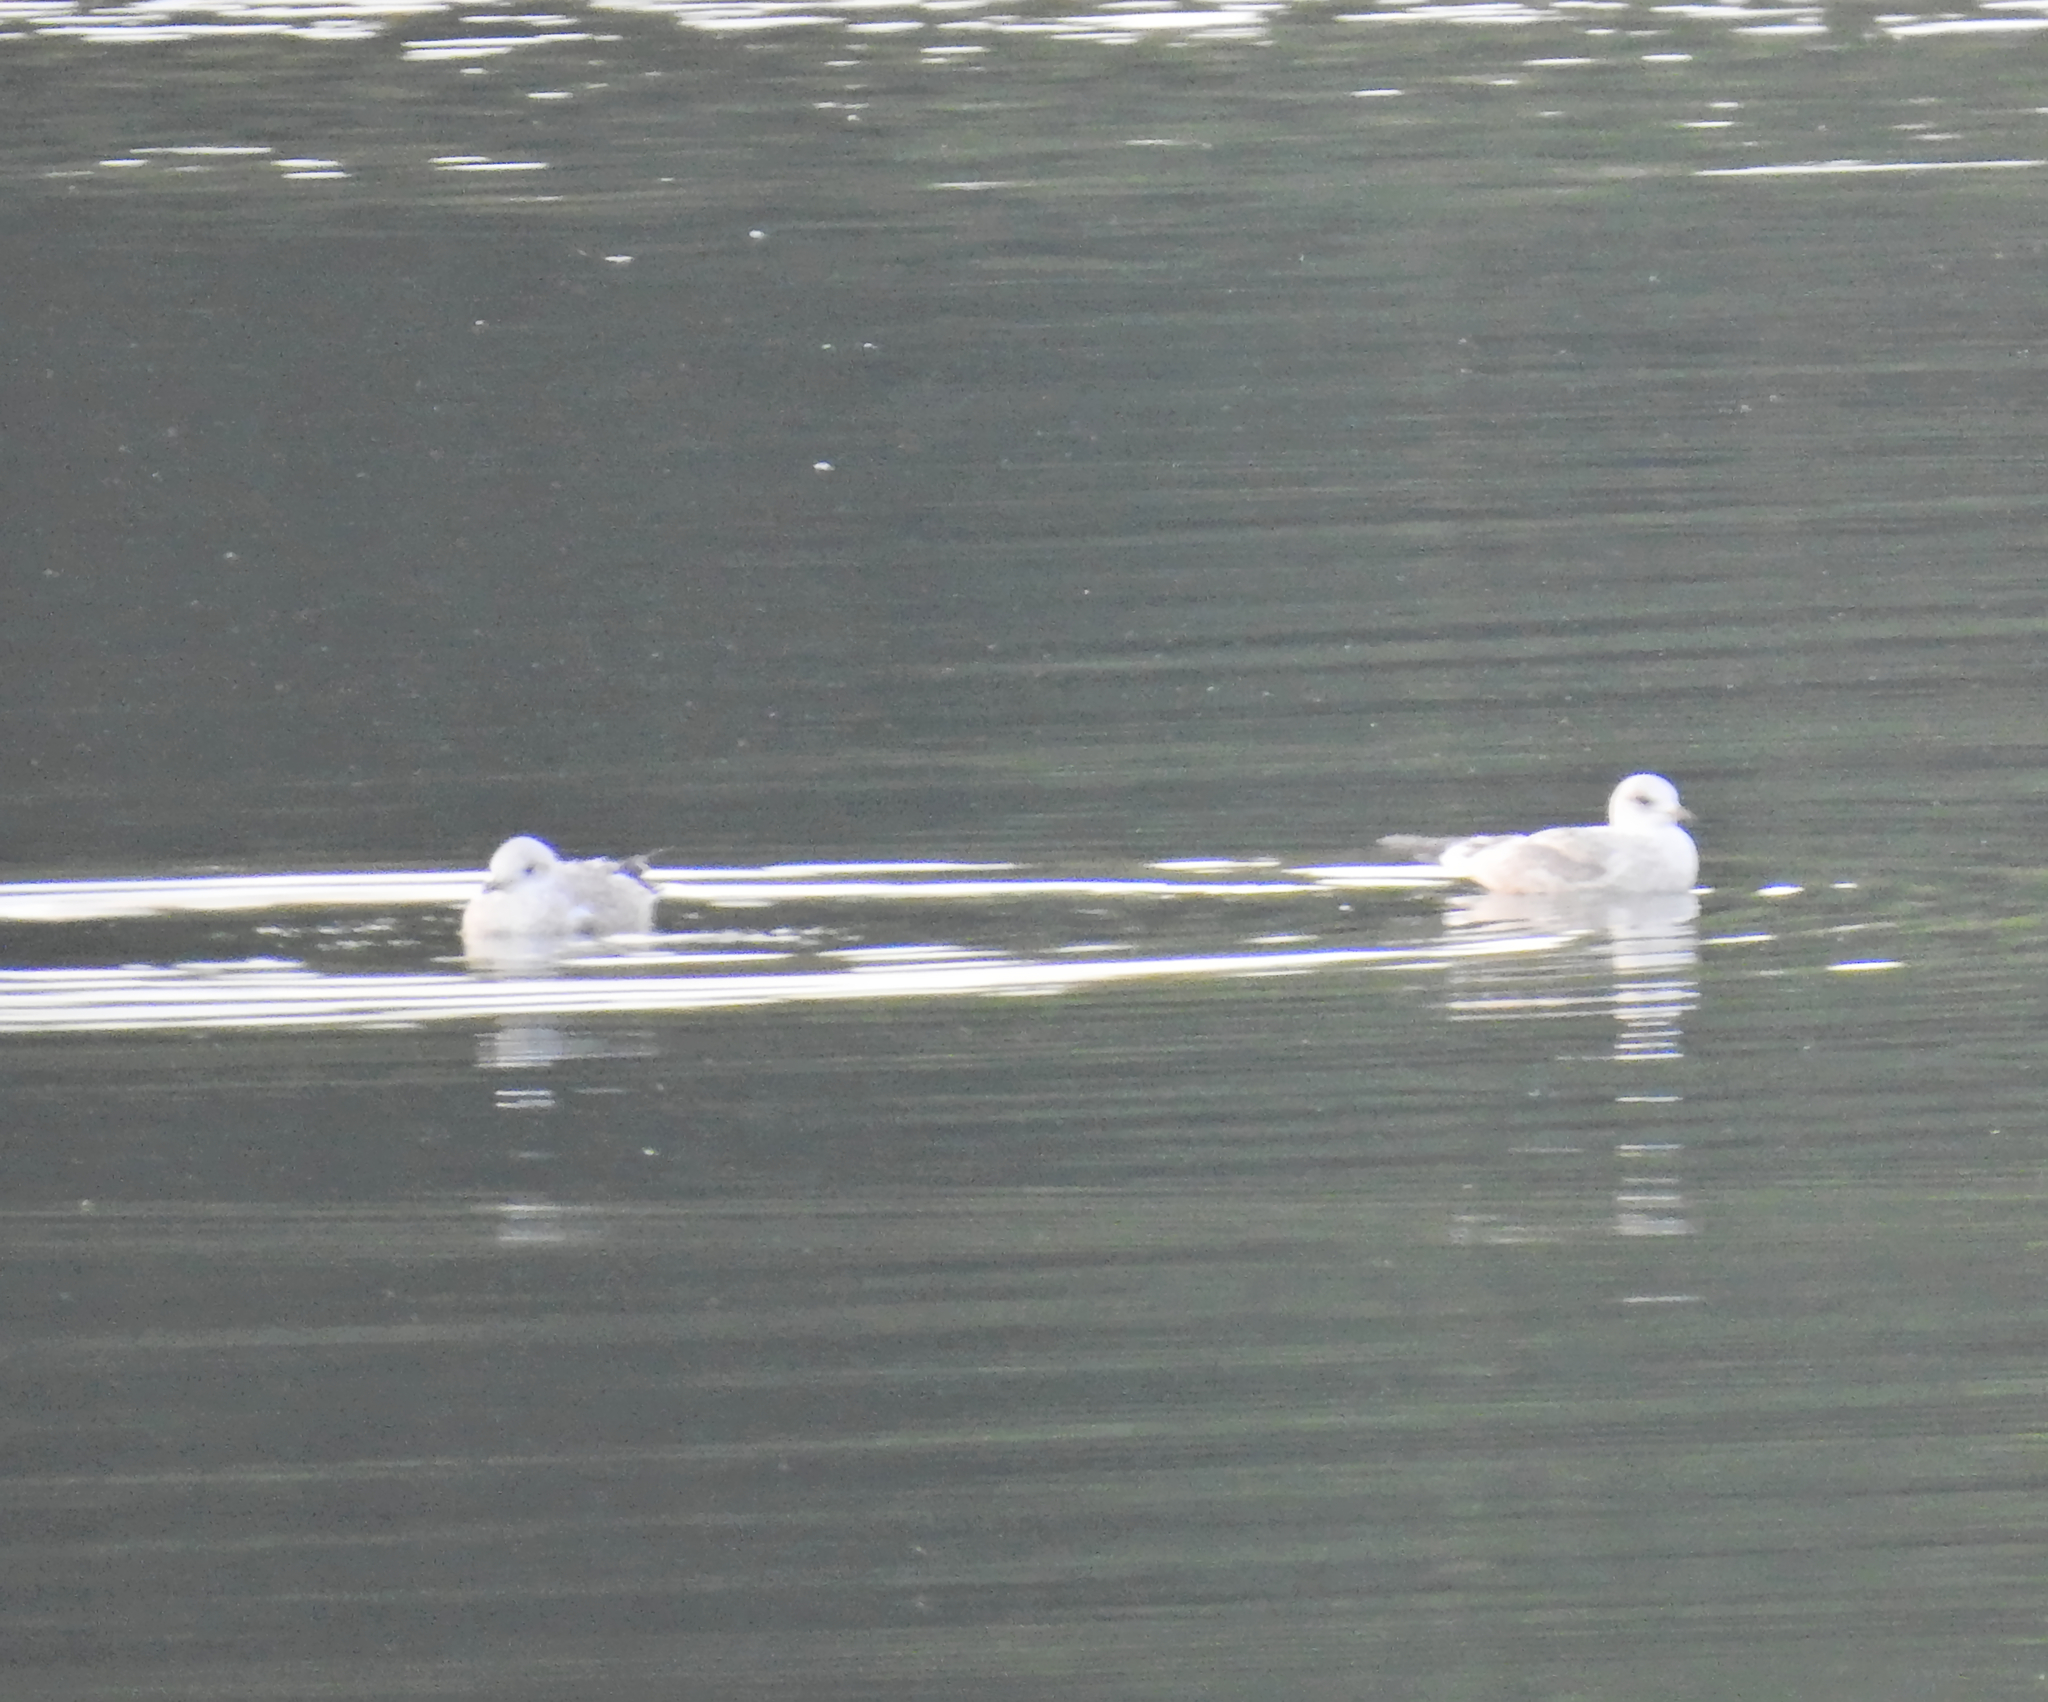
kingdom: Animalia
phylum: Chordata
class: Aves
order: Charadriiformes
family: Laridae
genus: Larus
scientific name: Larus canus
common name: Mew gull
